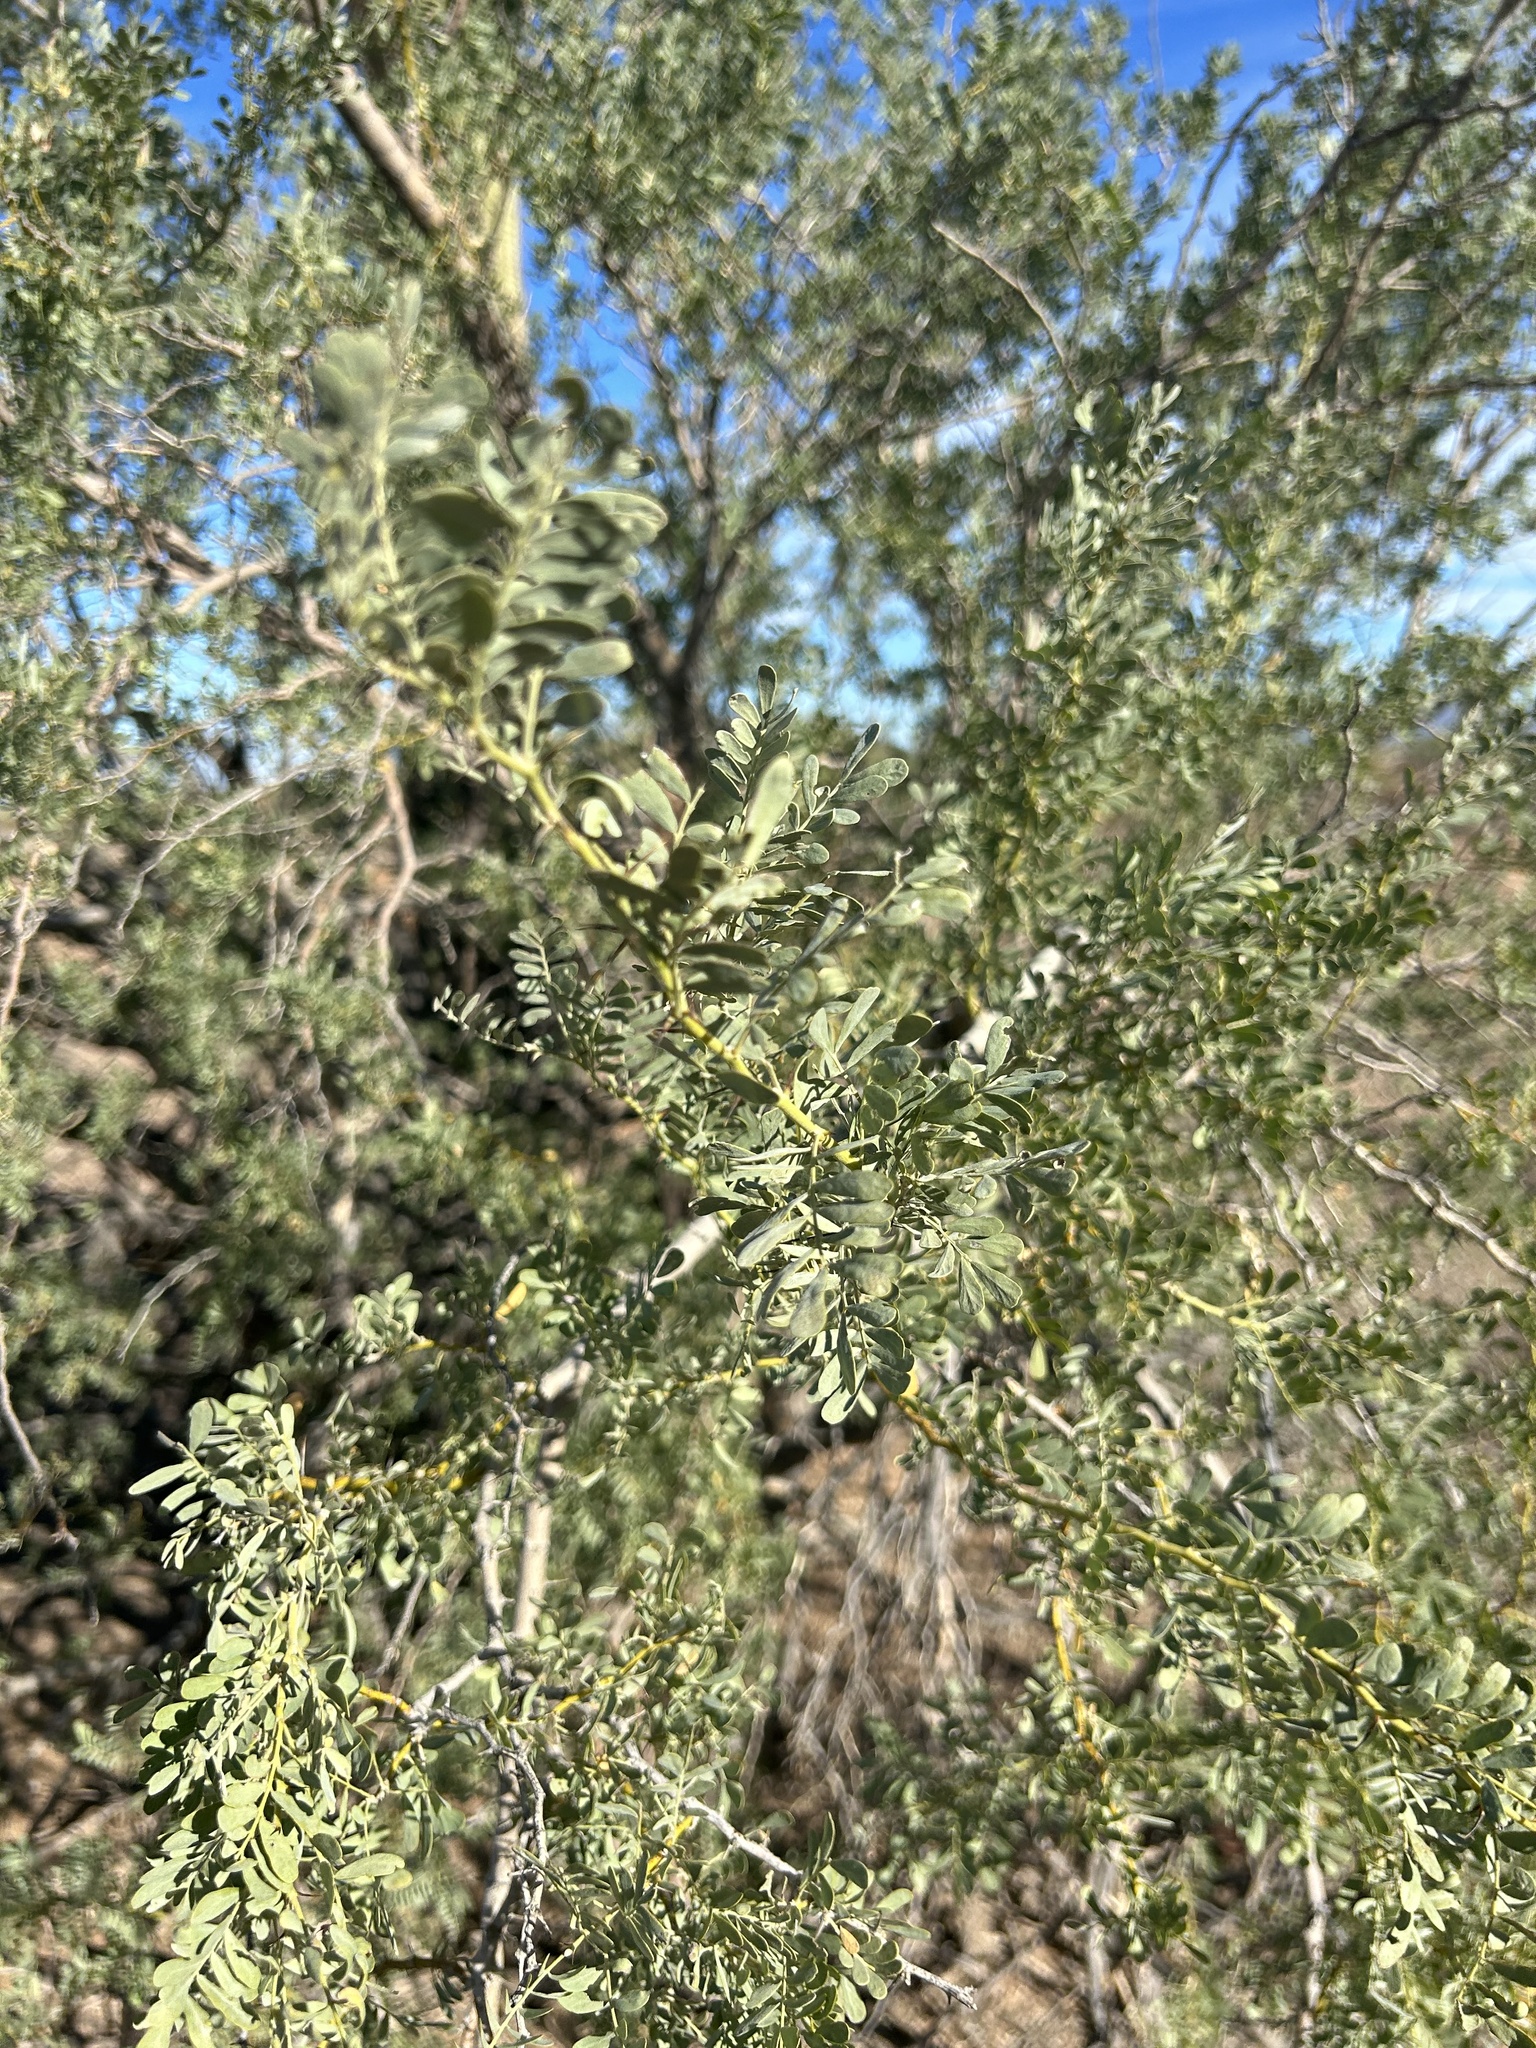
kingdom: Plantae
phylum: Tracheophyta
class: Magnoliopsida
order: Fabales
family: Fabaceae
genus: Olneya
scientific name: Olneya tesota
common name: Desert ironwood
